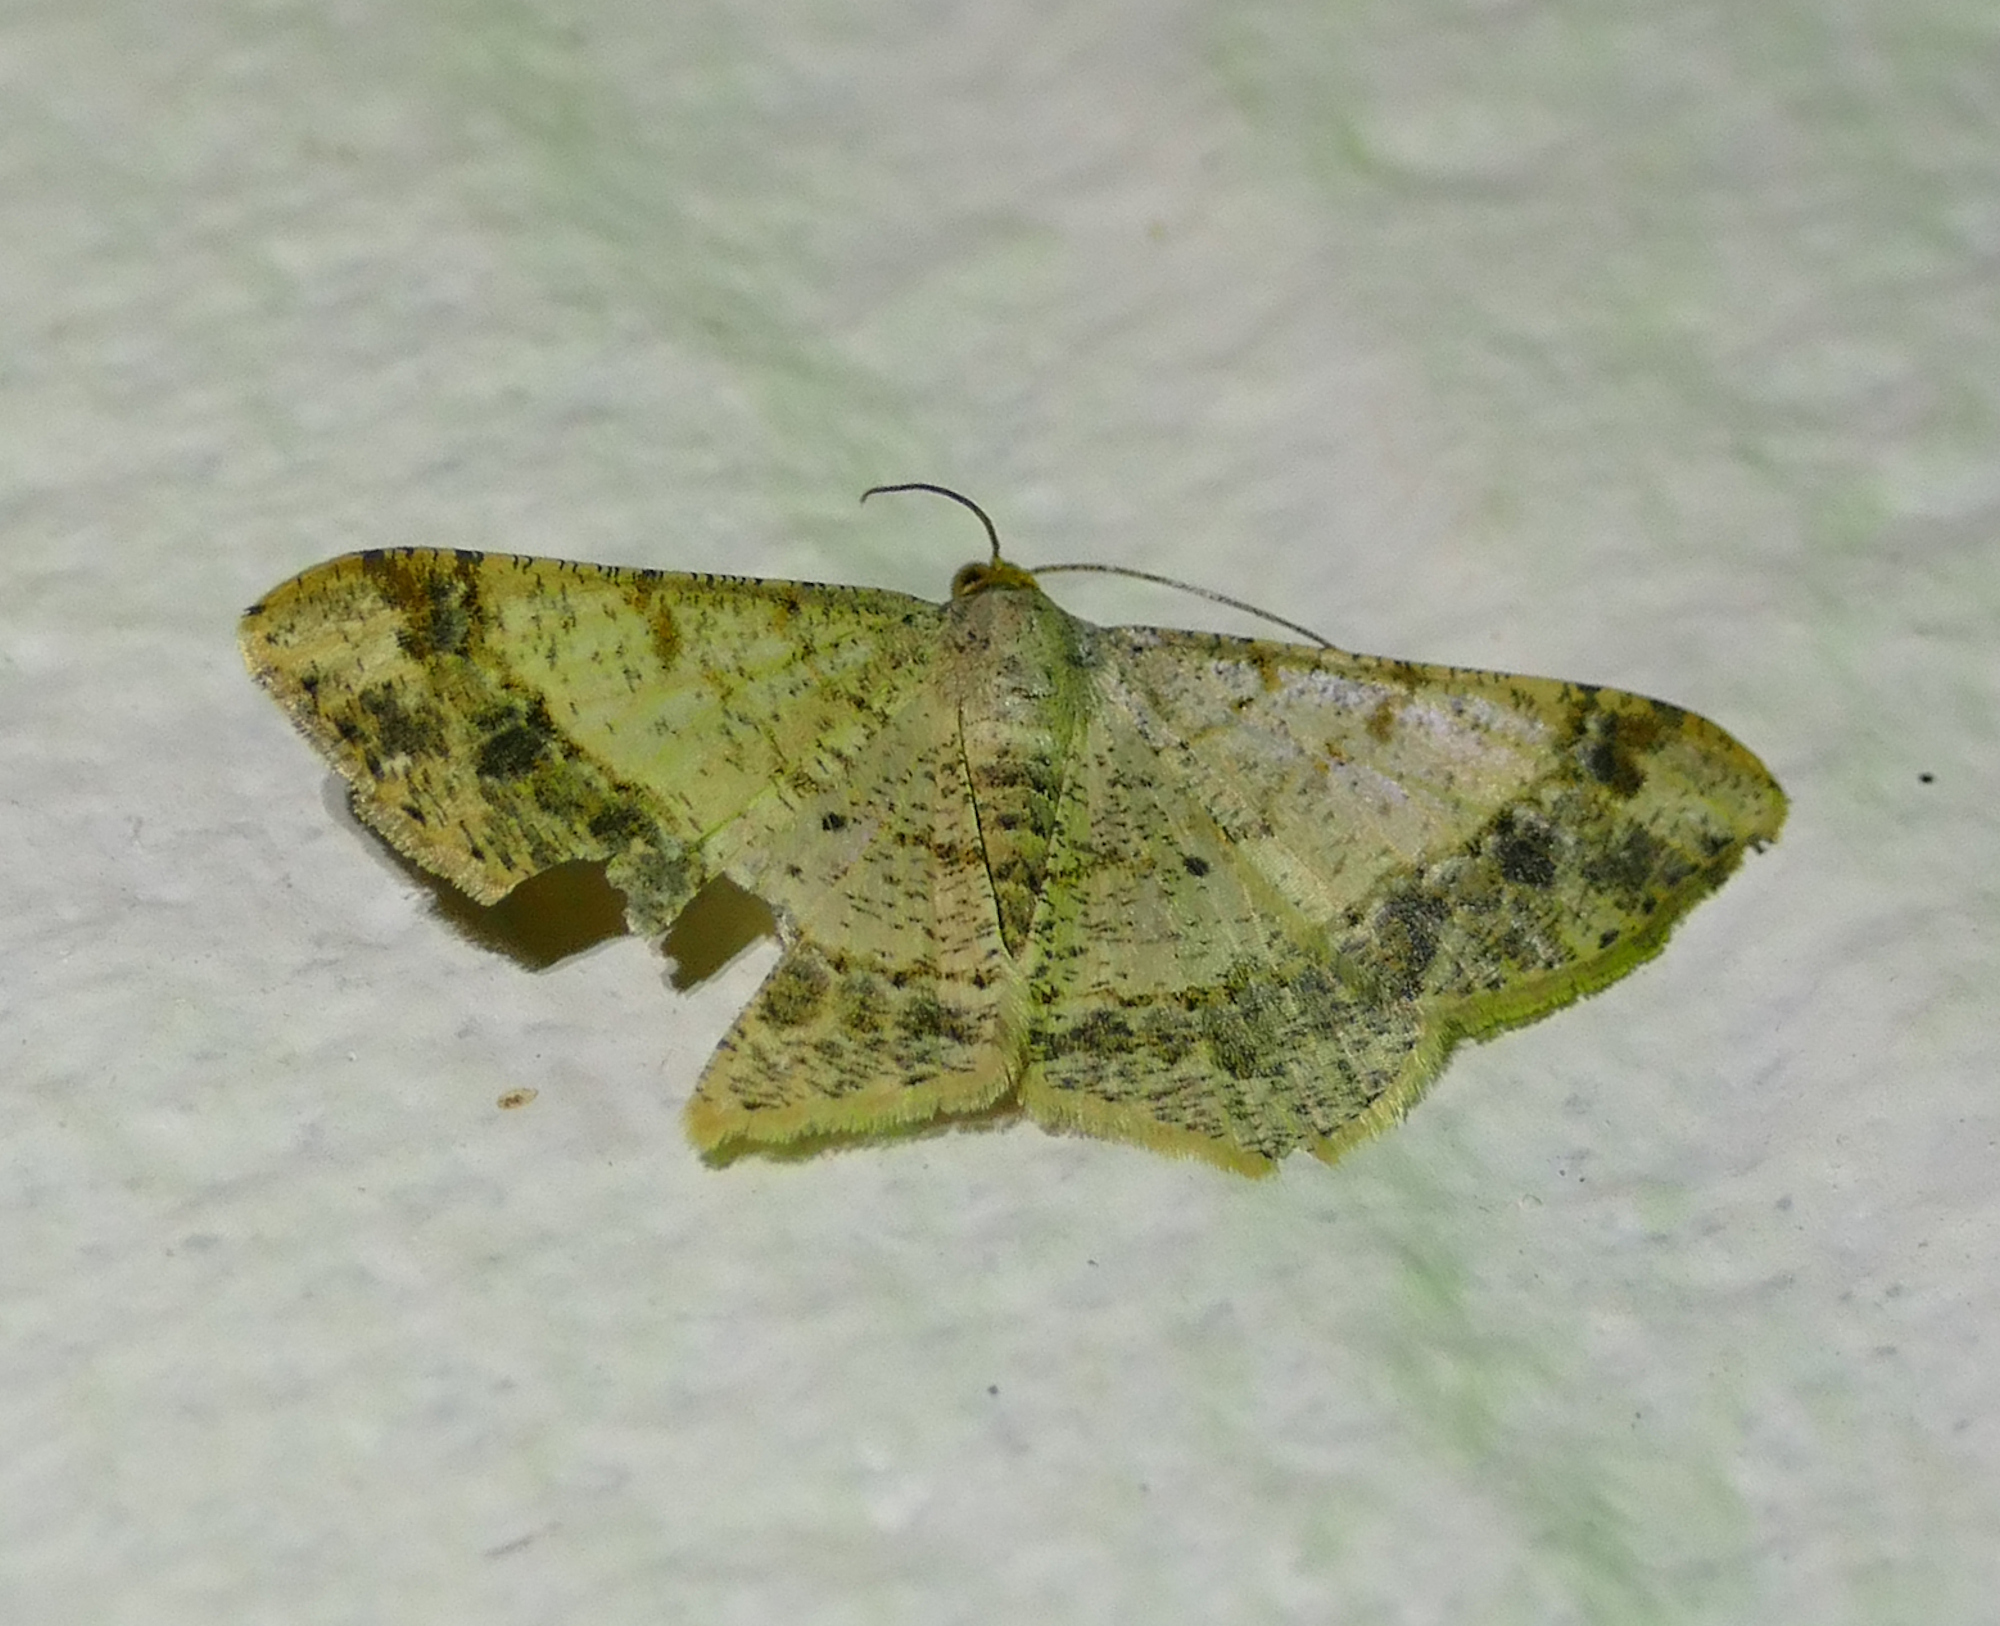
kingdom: Animalia
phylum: Arthropoda
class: Insecta
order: Lepidoptera
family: Geometridae
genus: Macaria
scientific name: Macaria abydata
